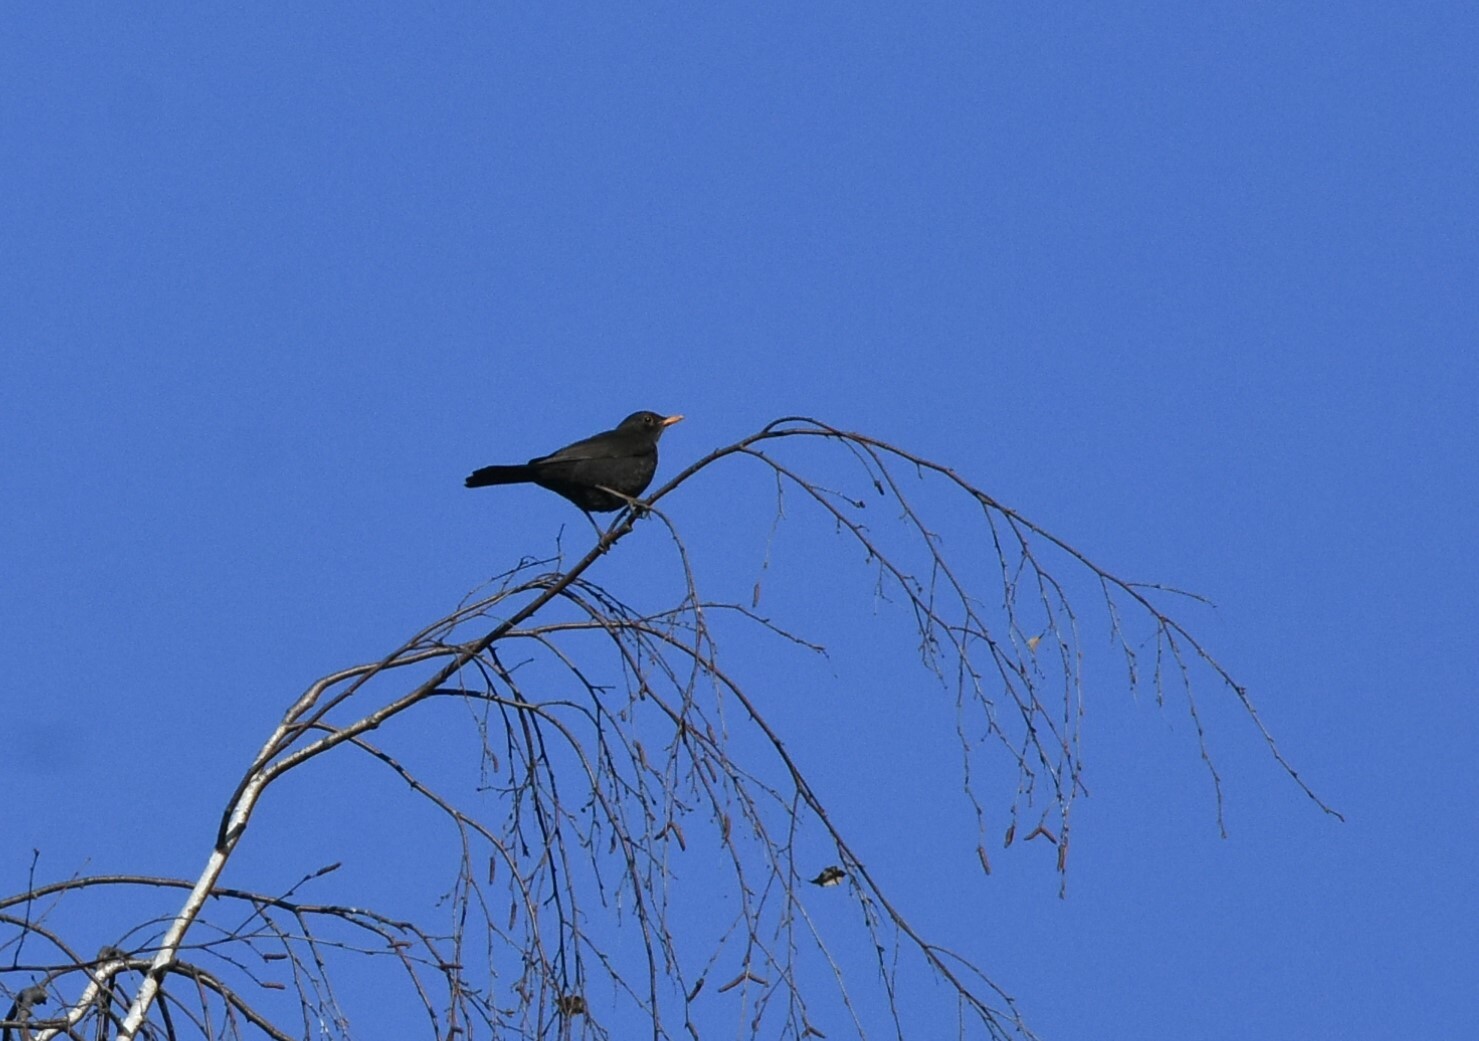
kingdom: Animalia
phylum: Chordata
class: Aves
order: Passeriformes
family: Turdidae
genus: Turdus
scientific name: Turdus merula
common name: Common blackbird
